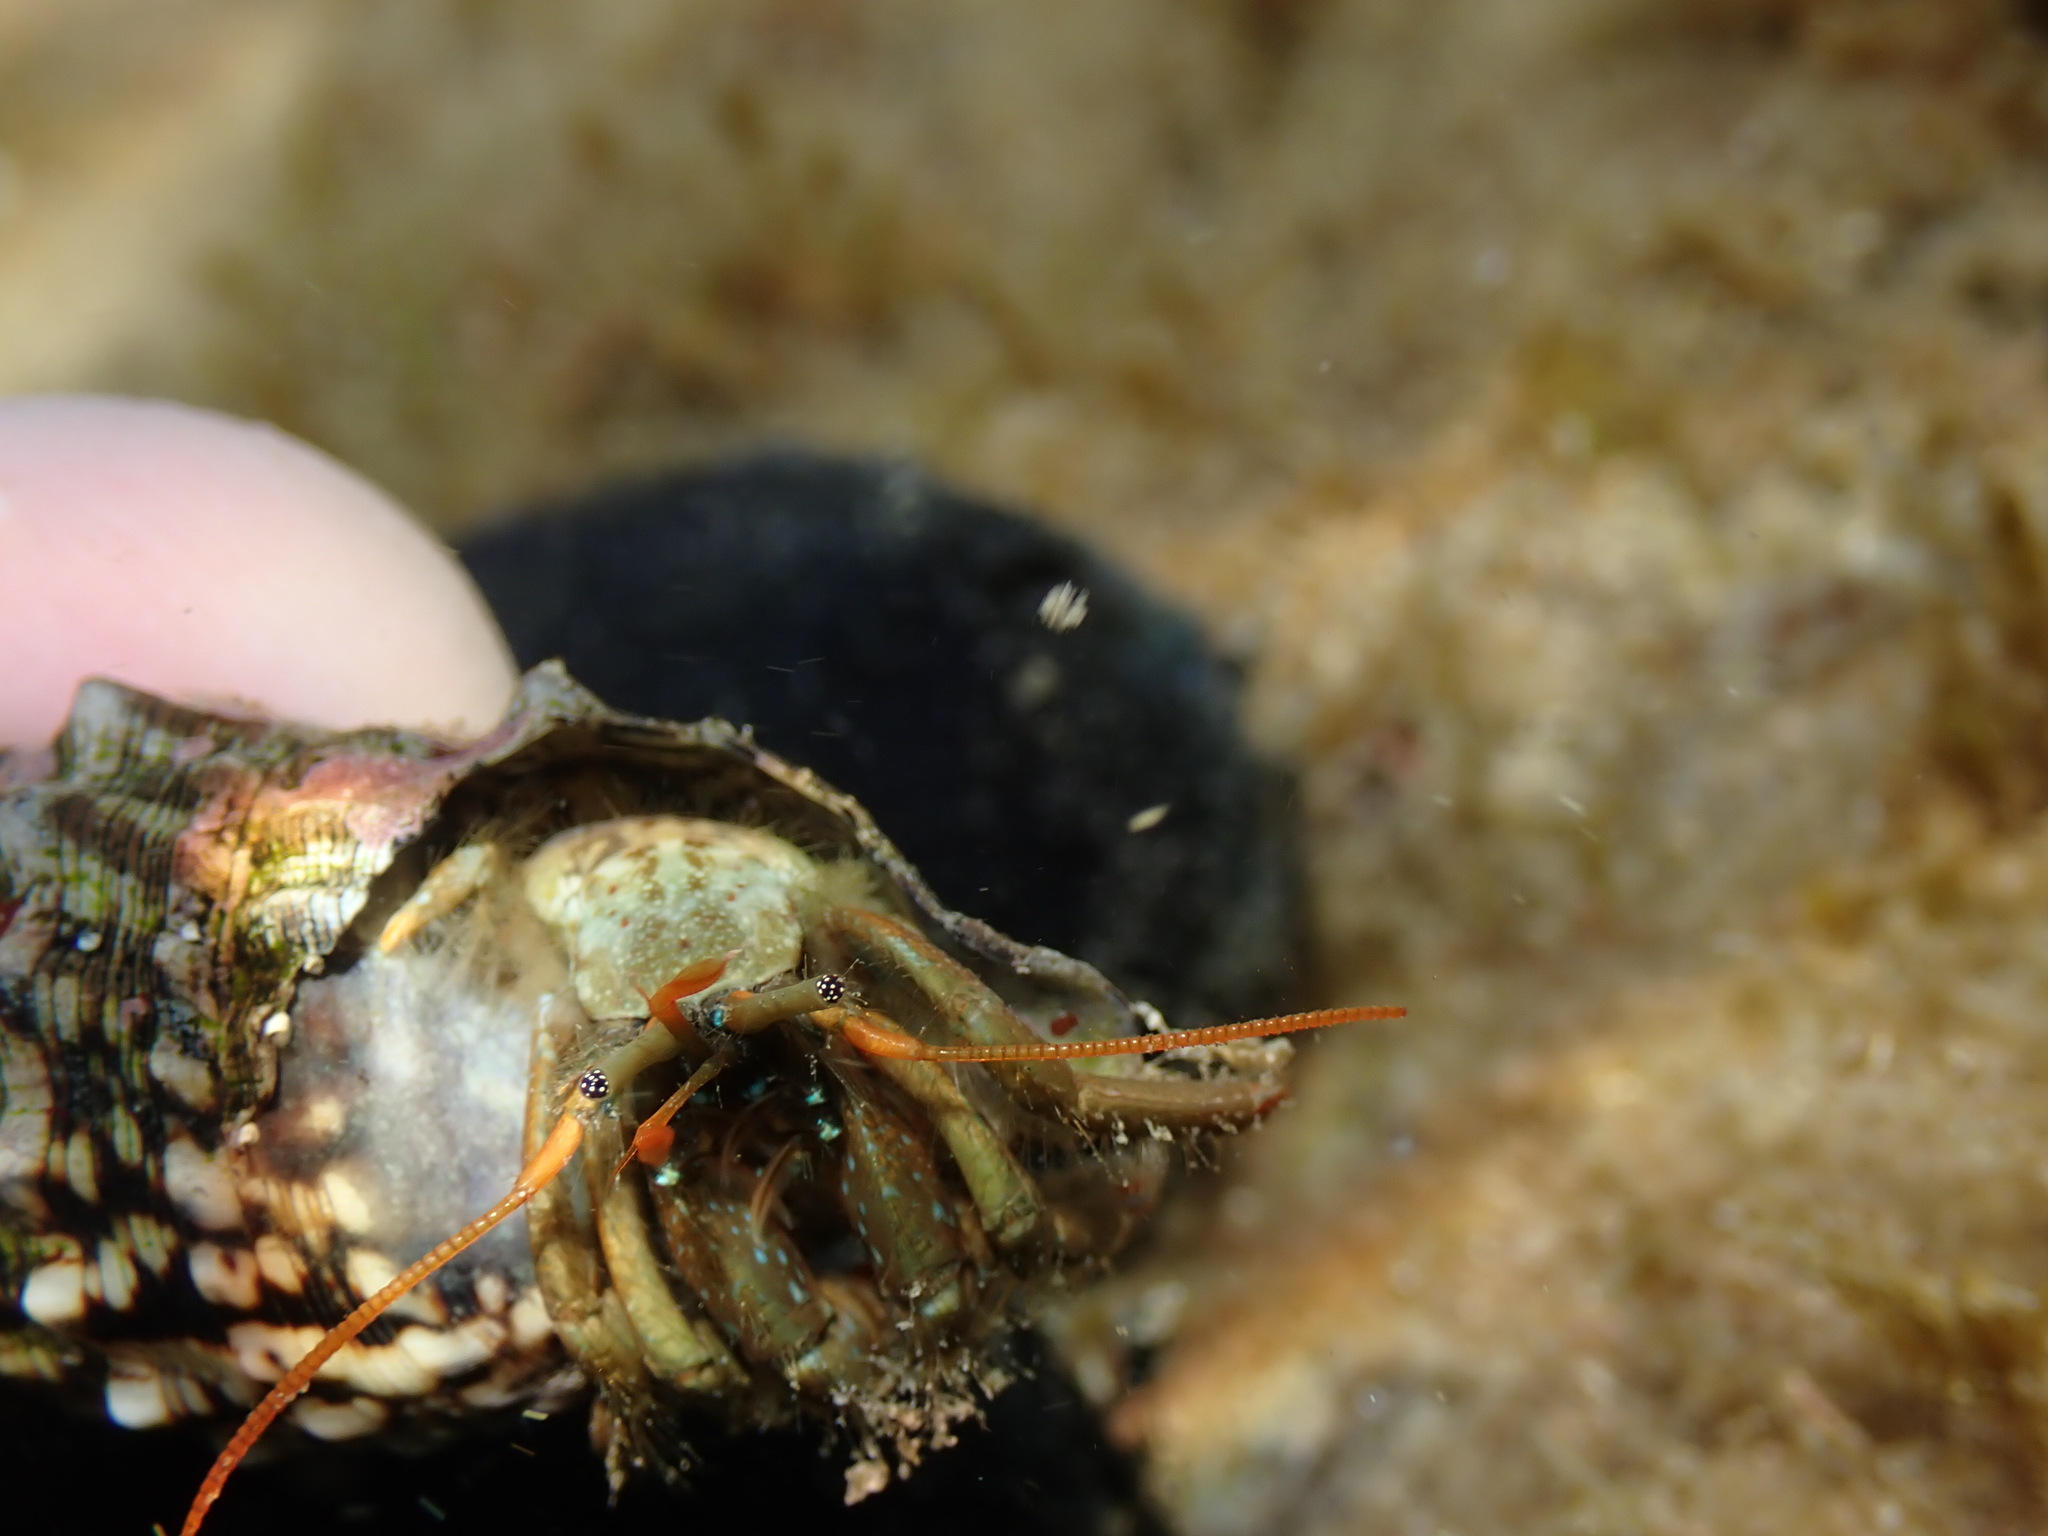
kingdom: Animalia
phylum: Arthropoda
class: Malacostraca
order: Decapoda
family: Diogenidae
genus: Clibanarius
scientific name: Clibanarius erythropus
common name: Hermit crab
